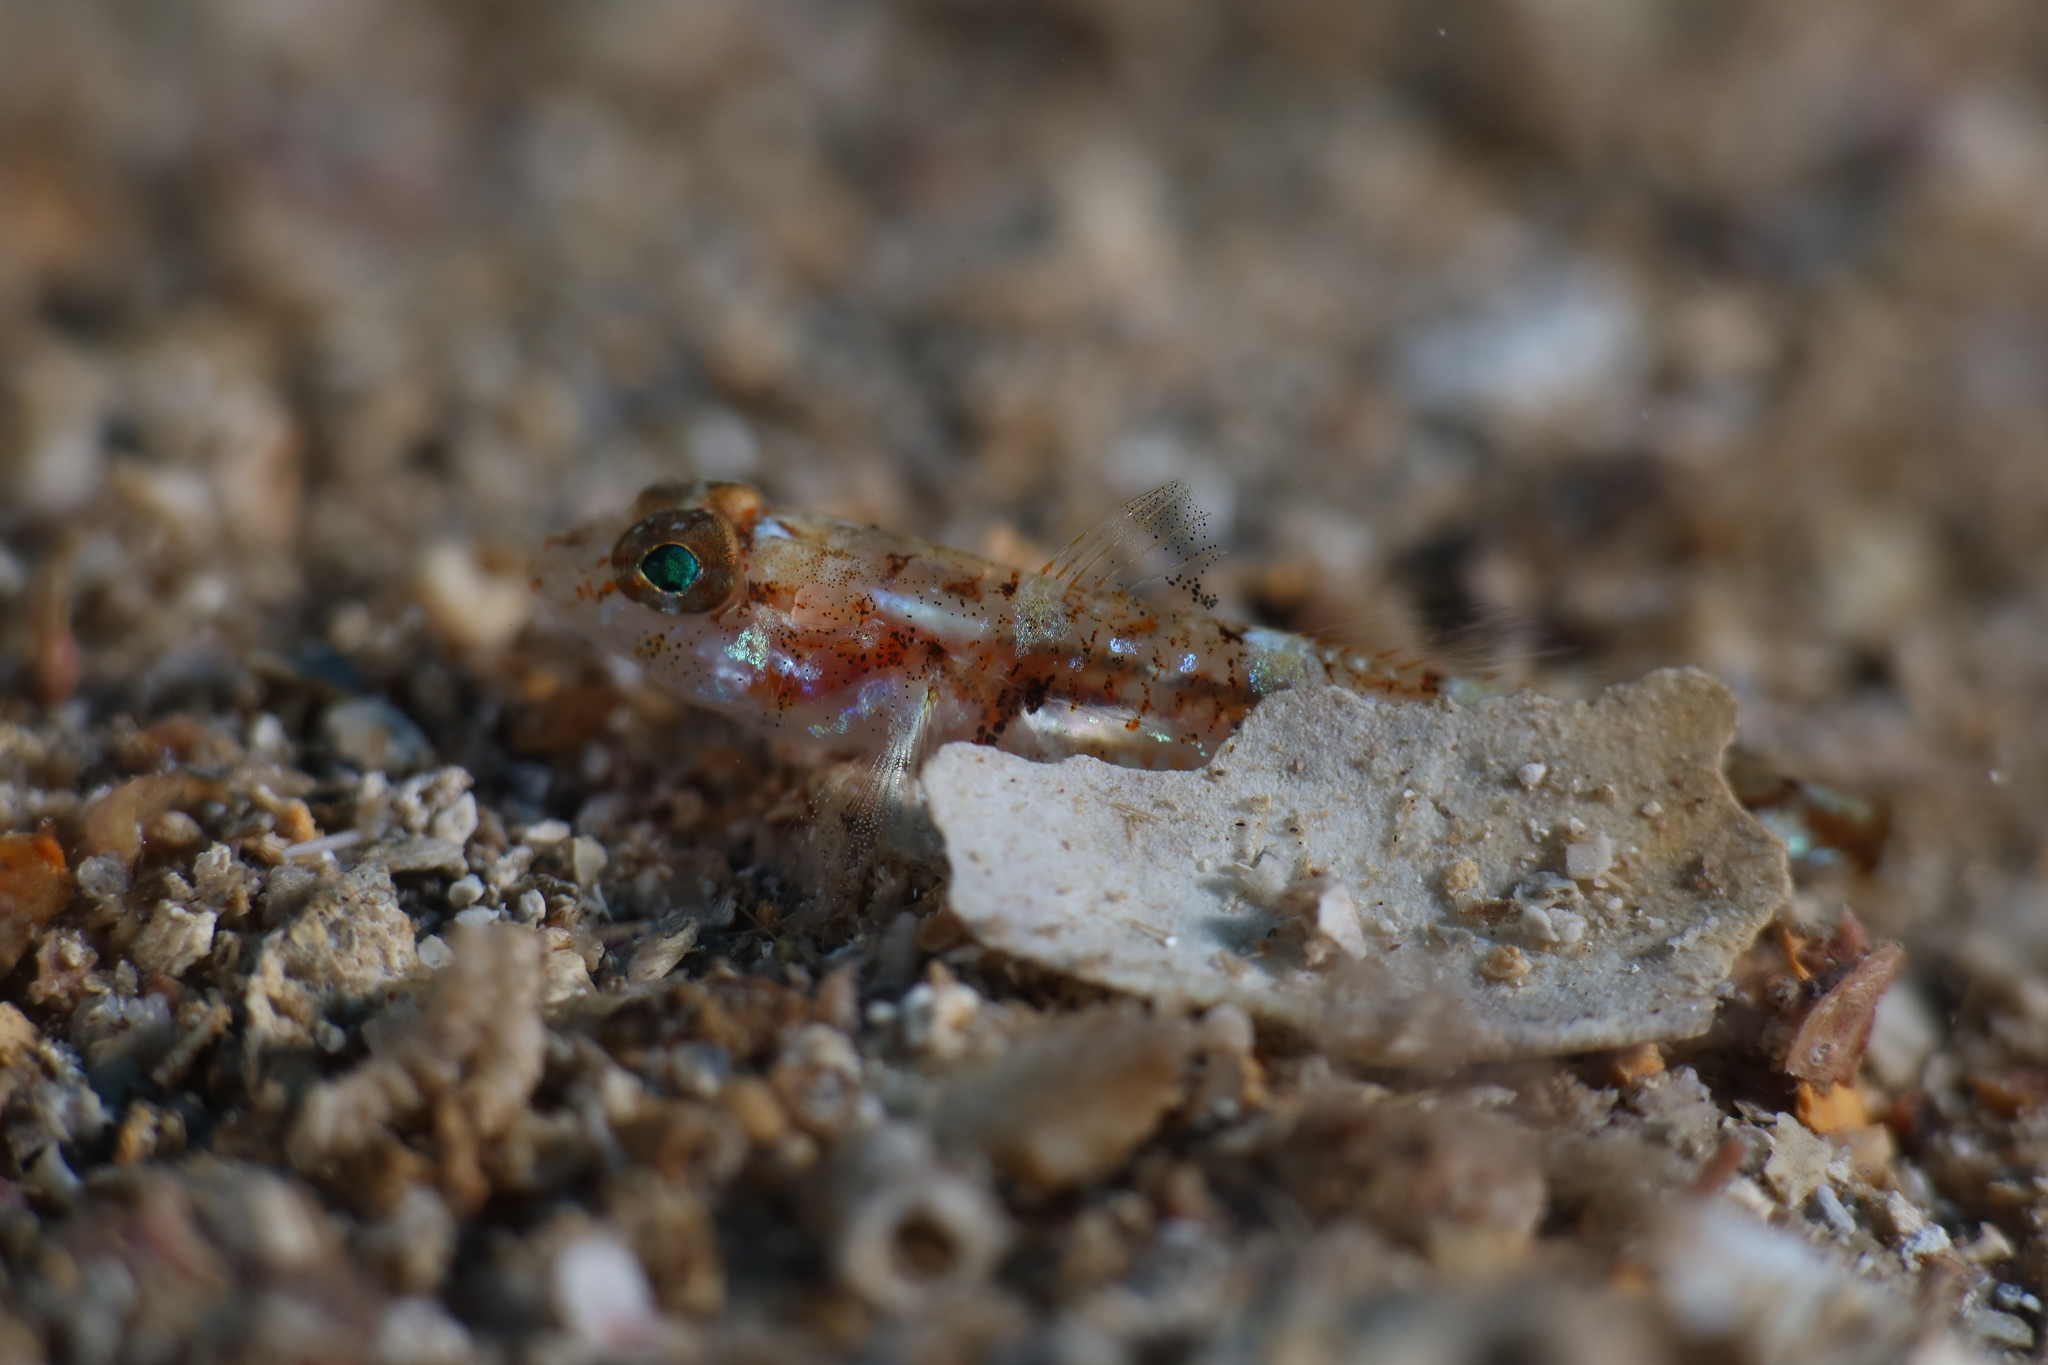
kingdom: Animalia
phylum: Chordata
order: Perciformes
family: Gobiidae
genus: Buenia
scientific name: Buenia affinis
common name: De buen's goby
